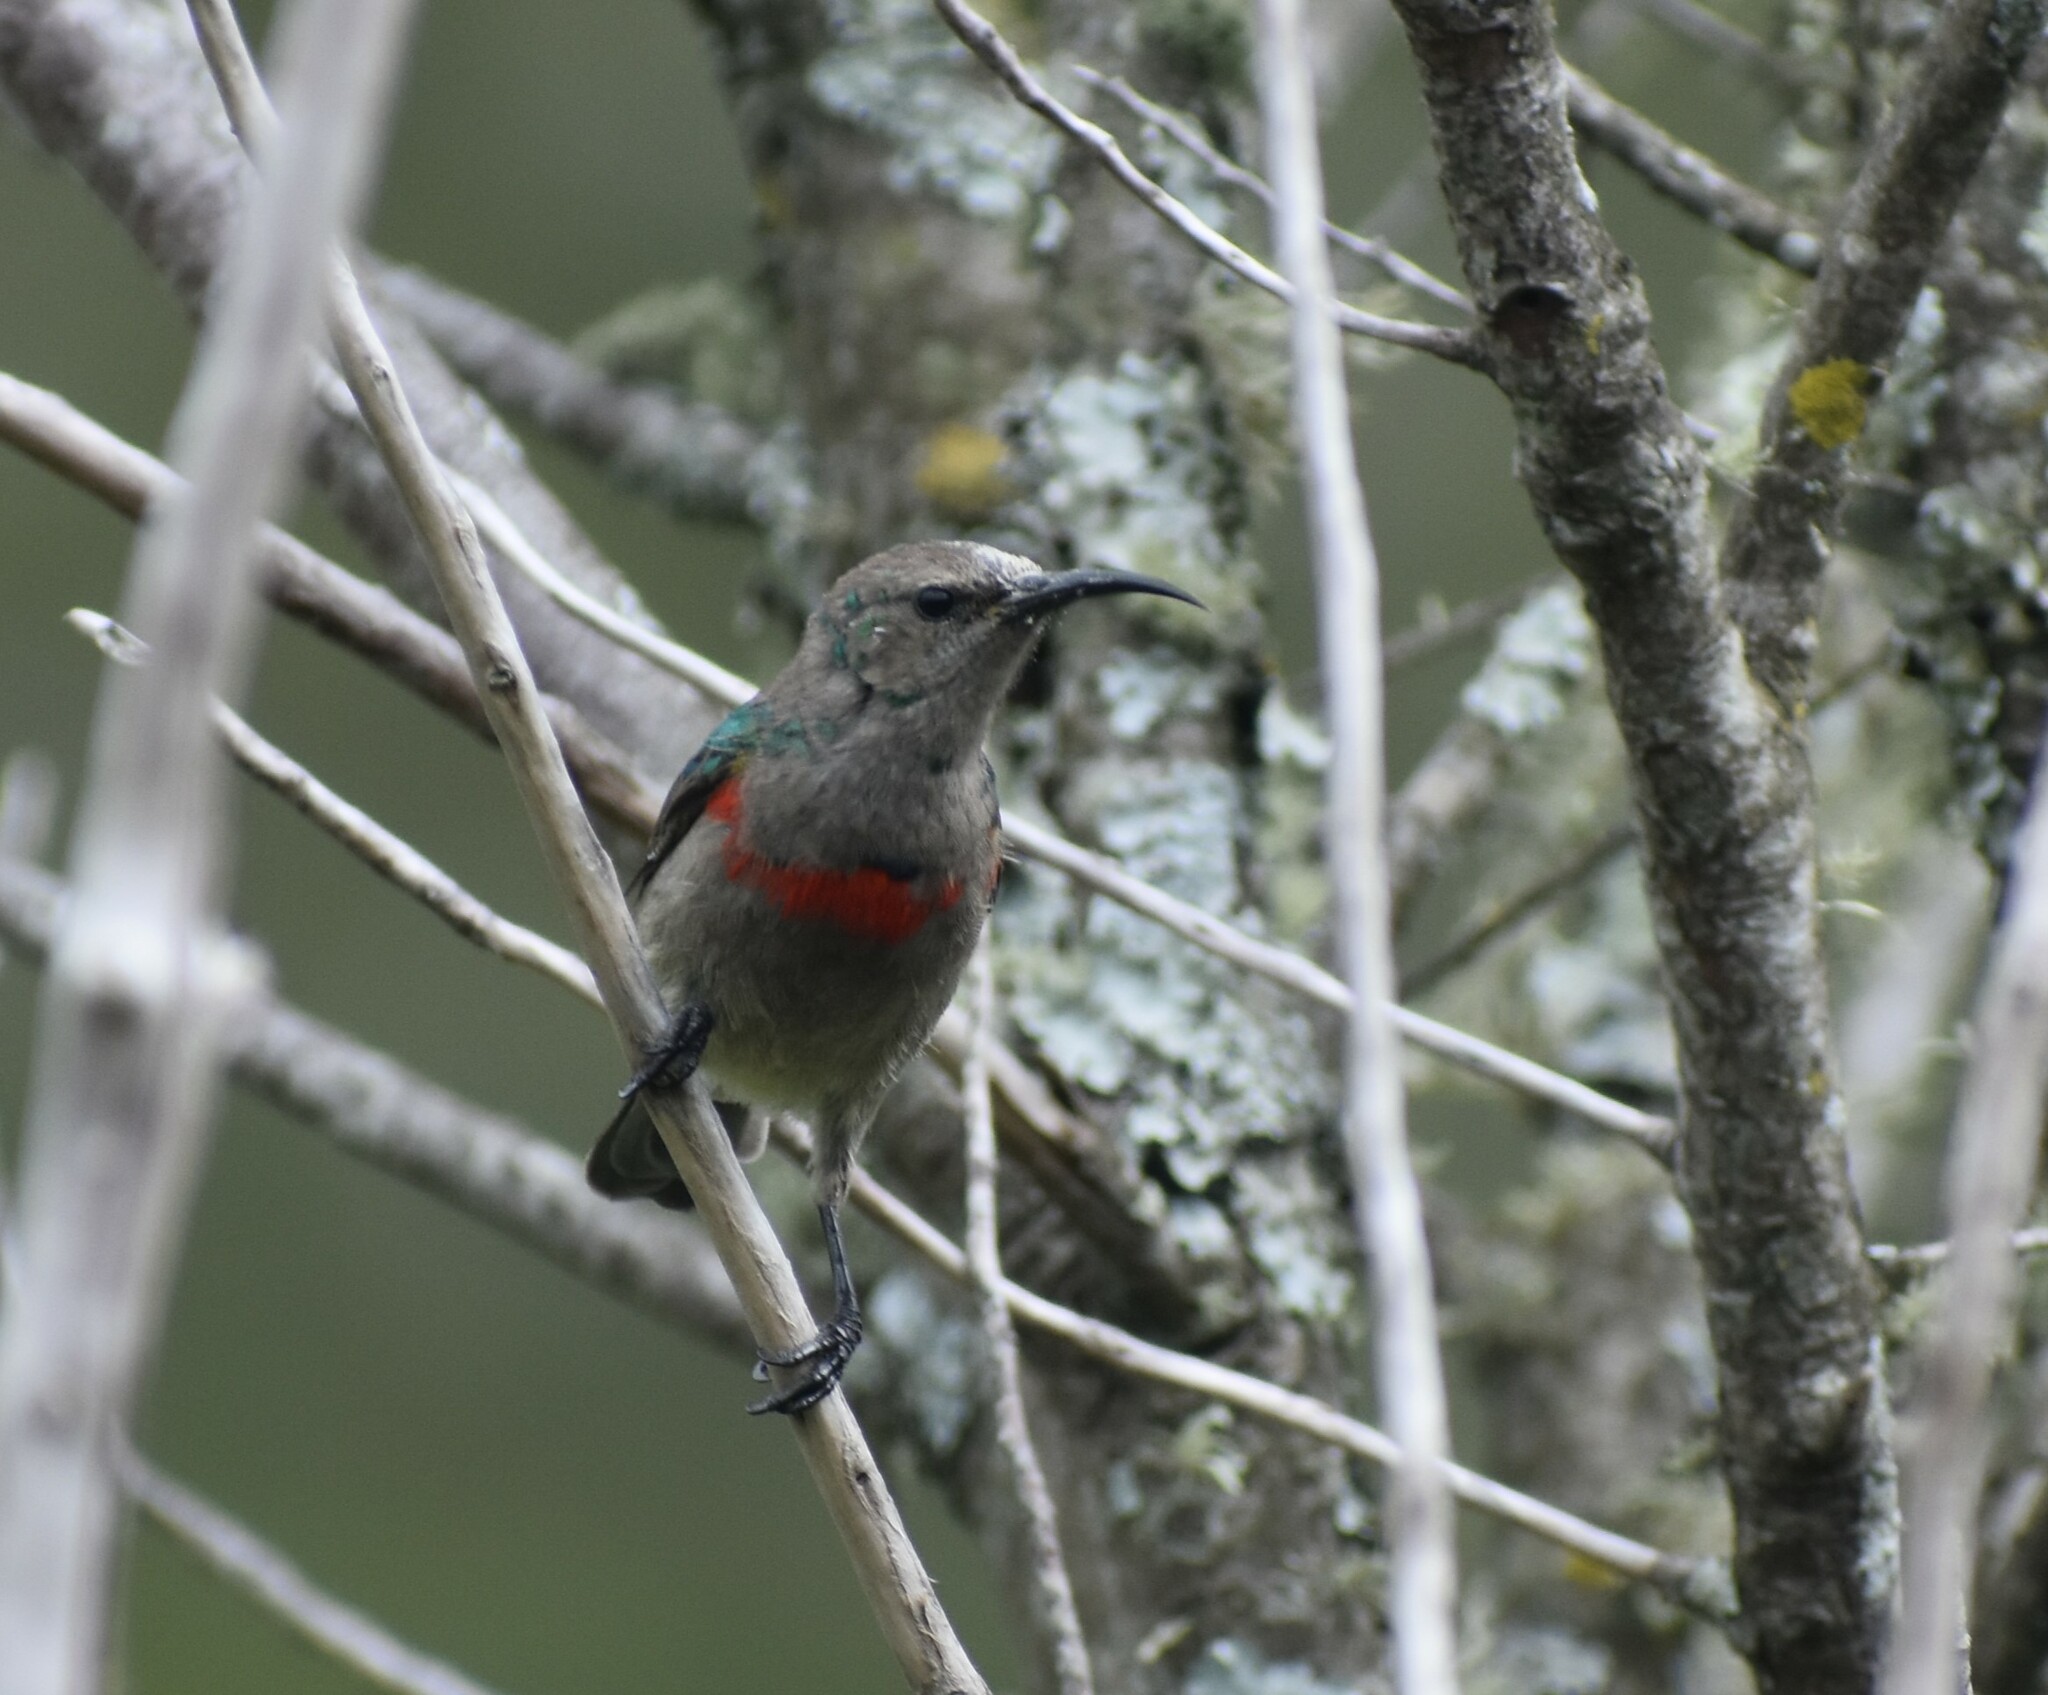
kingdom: Animalia
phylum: Chordata
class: Aves
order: Passeriformes
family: Nectariniidae
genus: Cinnyris
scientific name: Cinnyris chalybeus
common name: Southern double-collared sunbird
